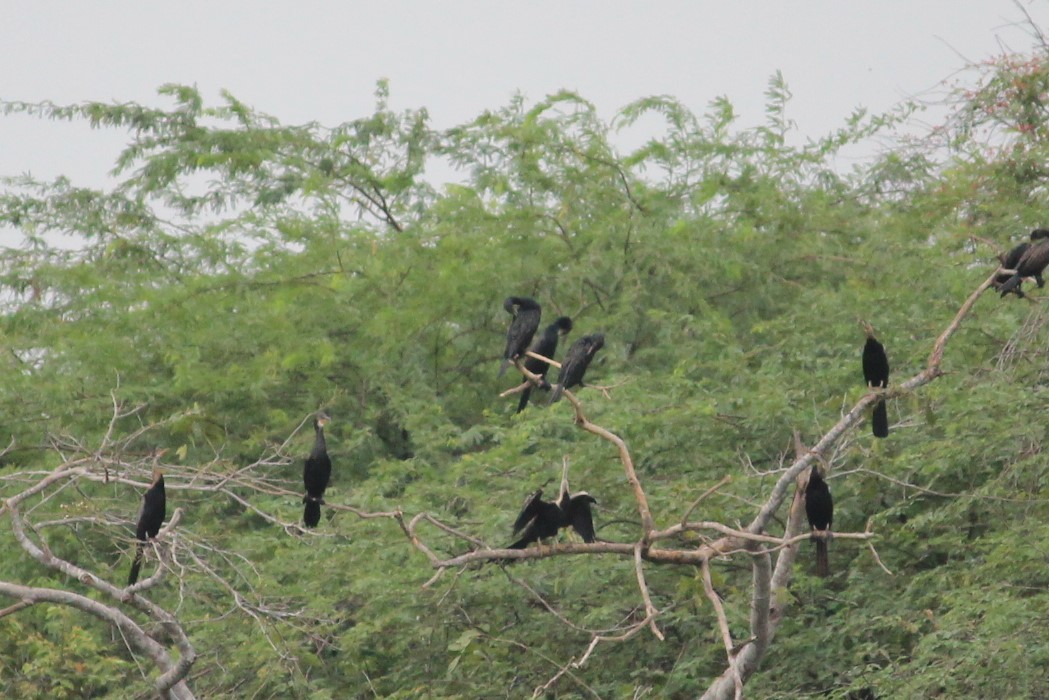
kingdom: Animalia
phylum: Chordata
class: Aves
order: Suliformes
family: Phalacrocoracidae
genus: Phalacrocorax
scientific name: Phalacrocorax fuscicollis
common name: Indian cormorant
